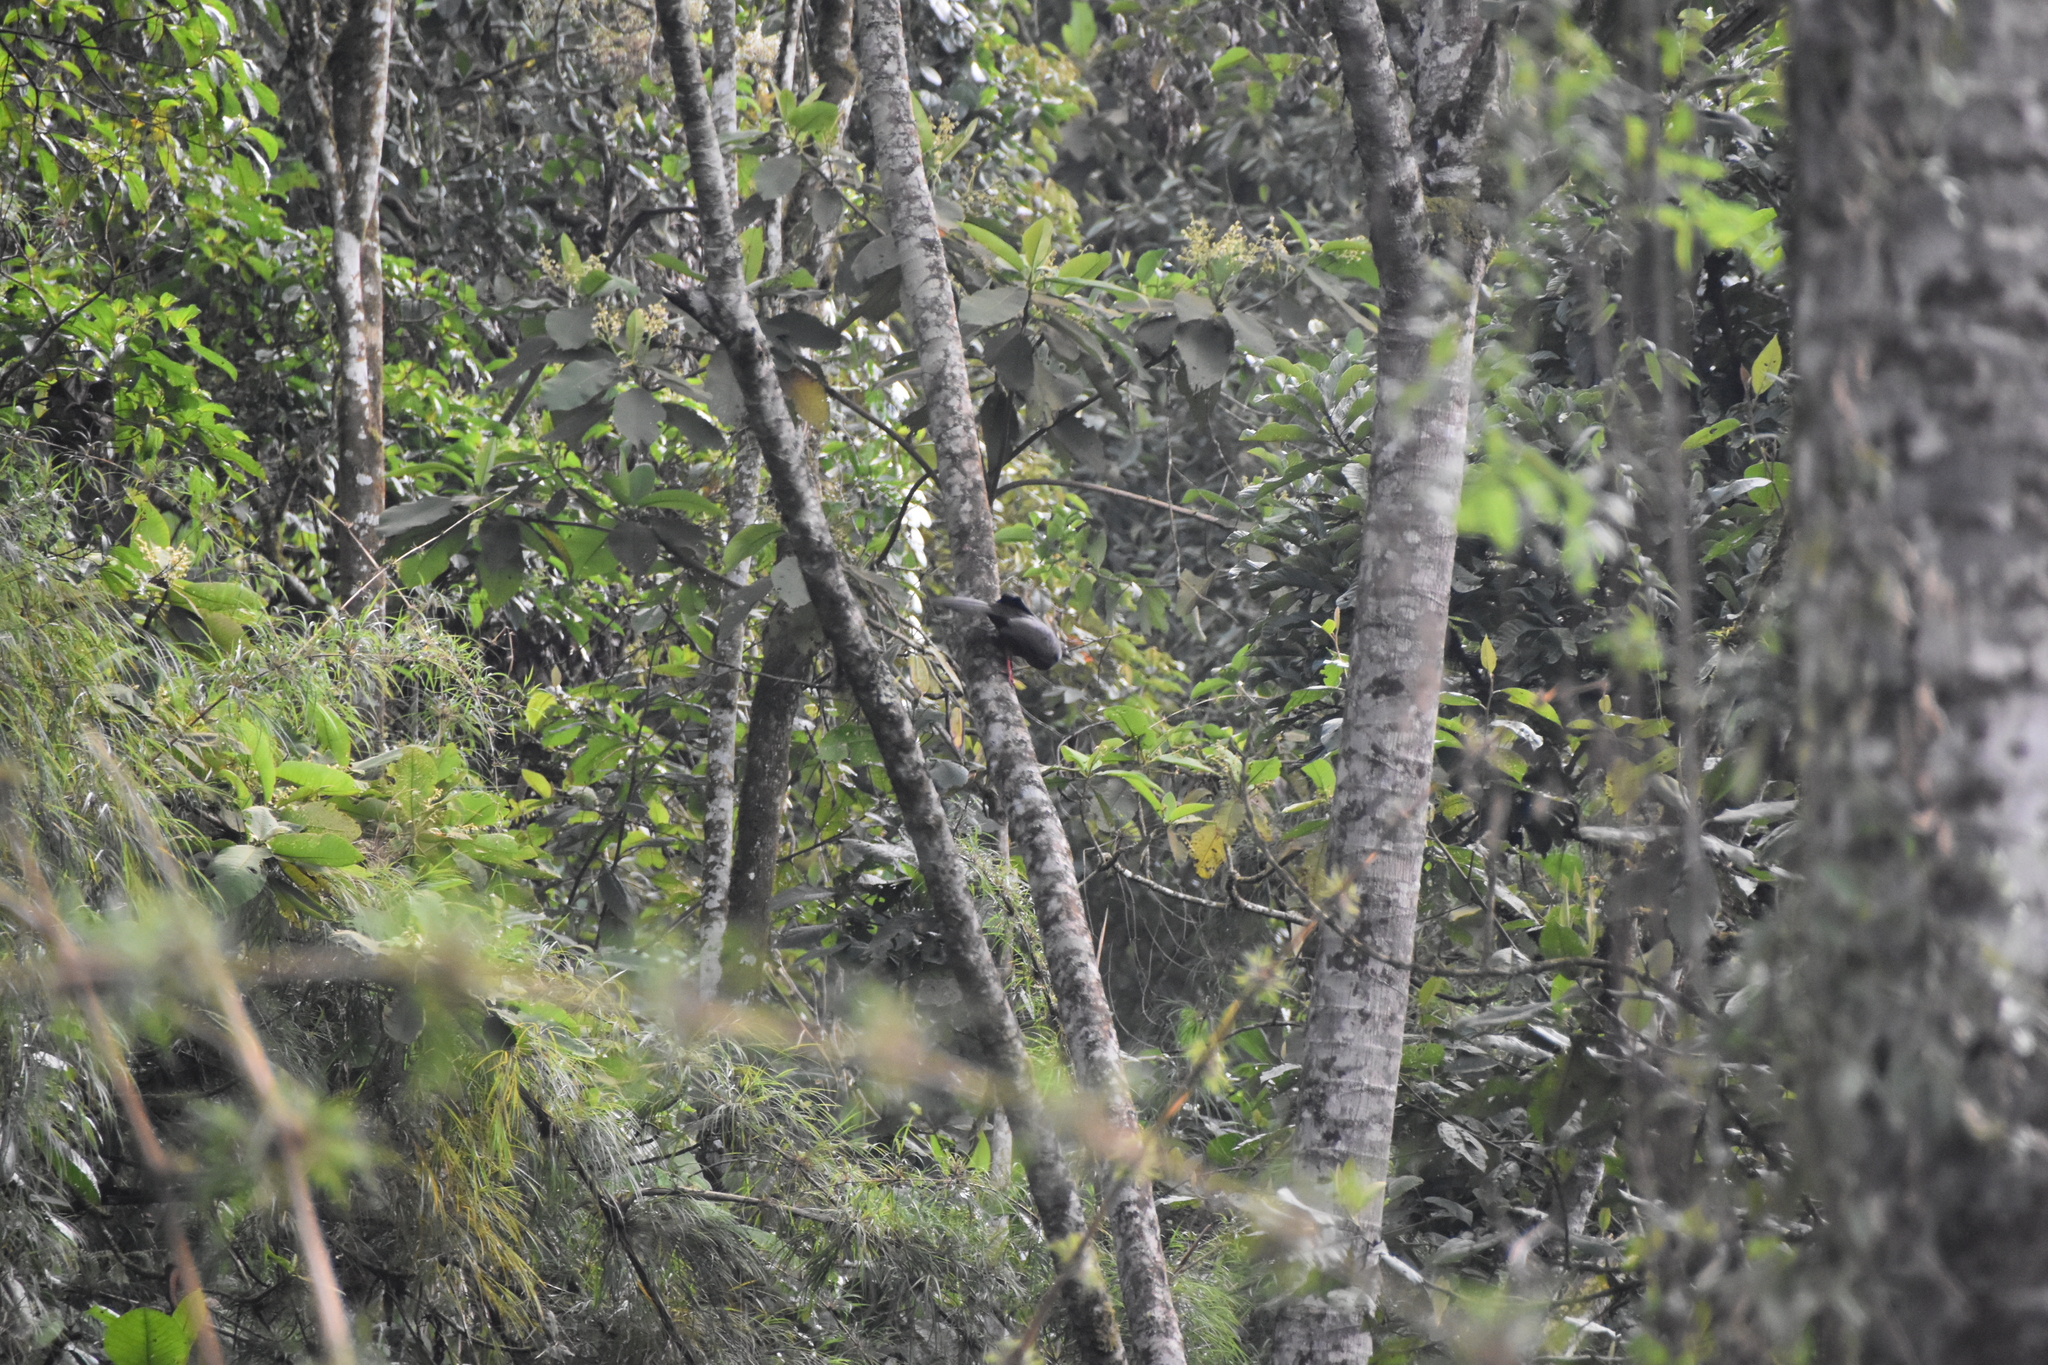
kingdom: Animalia
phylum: Chordata
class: Aves
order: Galliformes
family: Cracidae
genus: Chamaepetes
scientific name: Chamaepetes goudotii
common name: Sickle-winged guan
